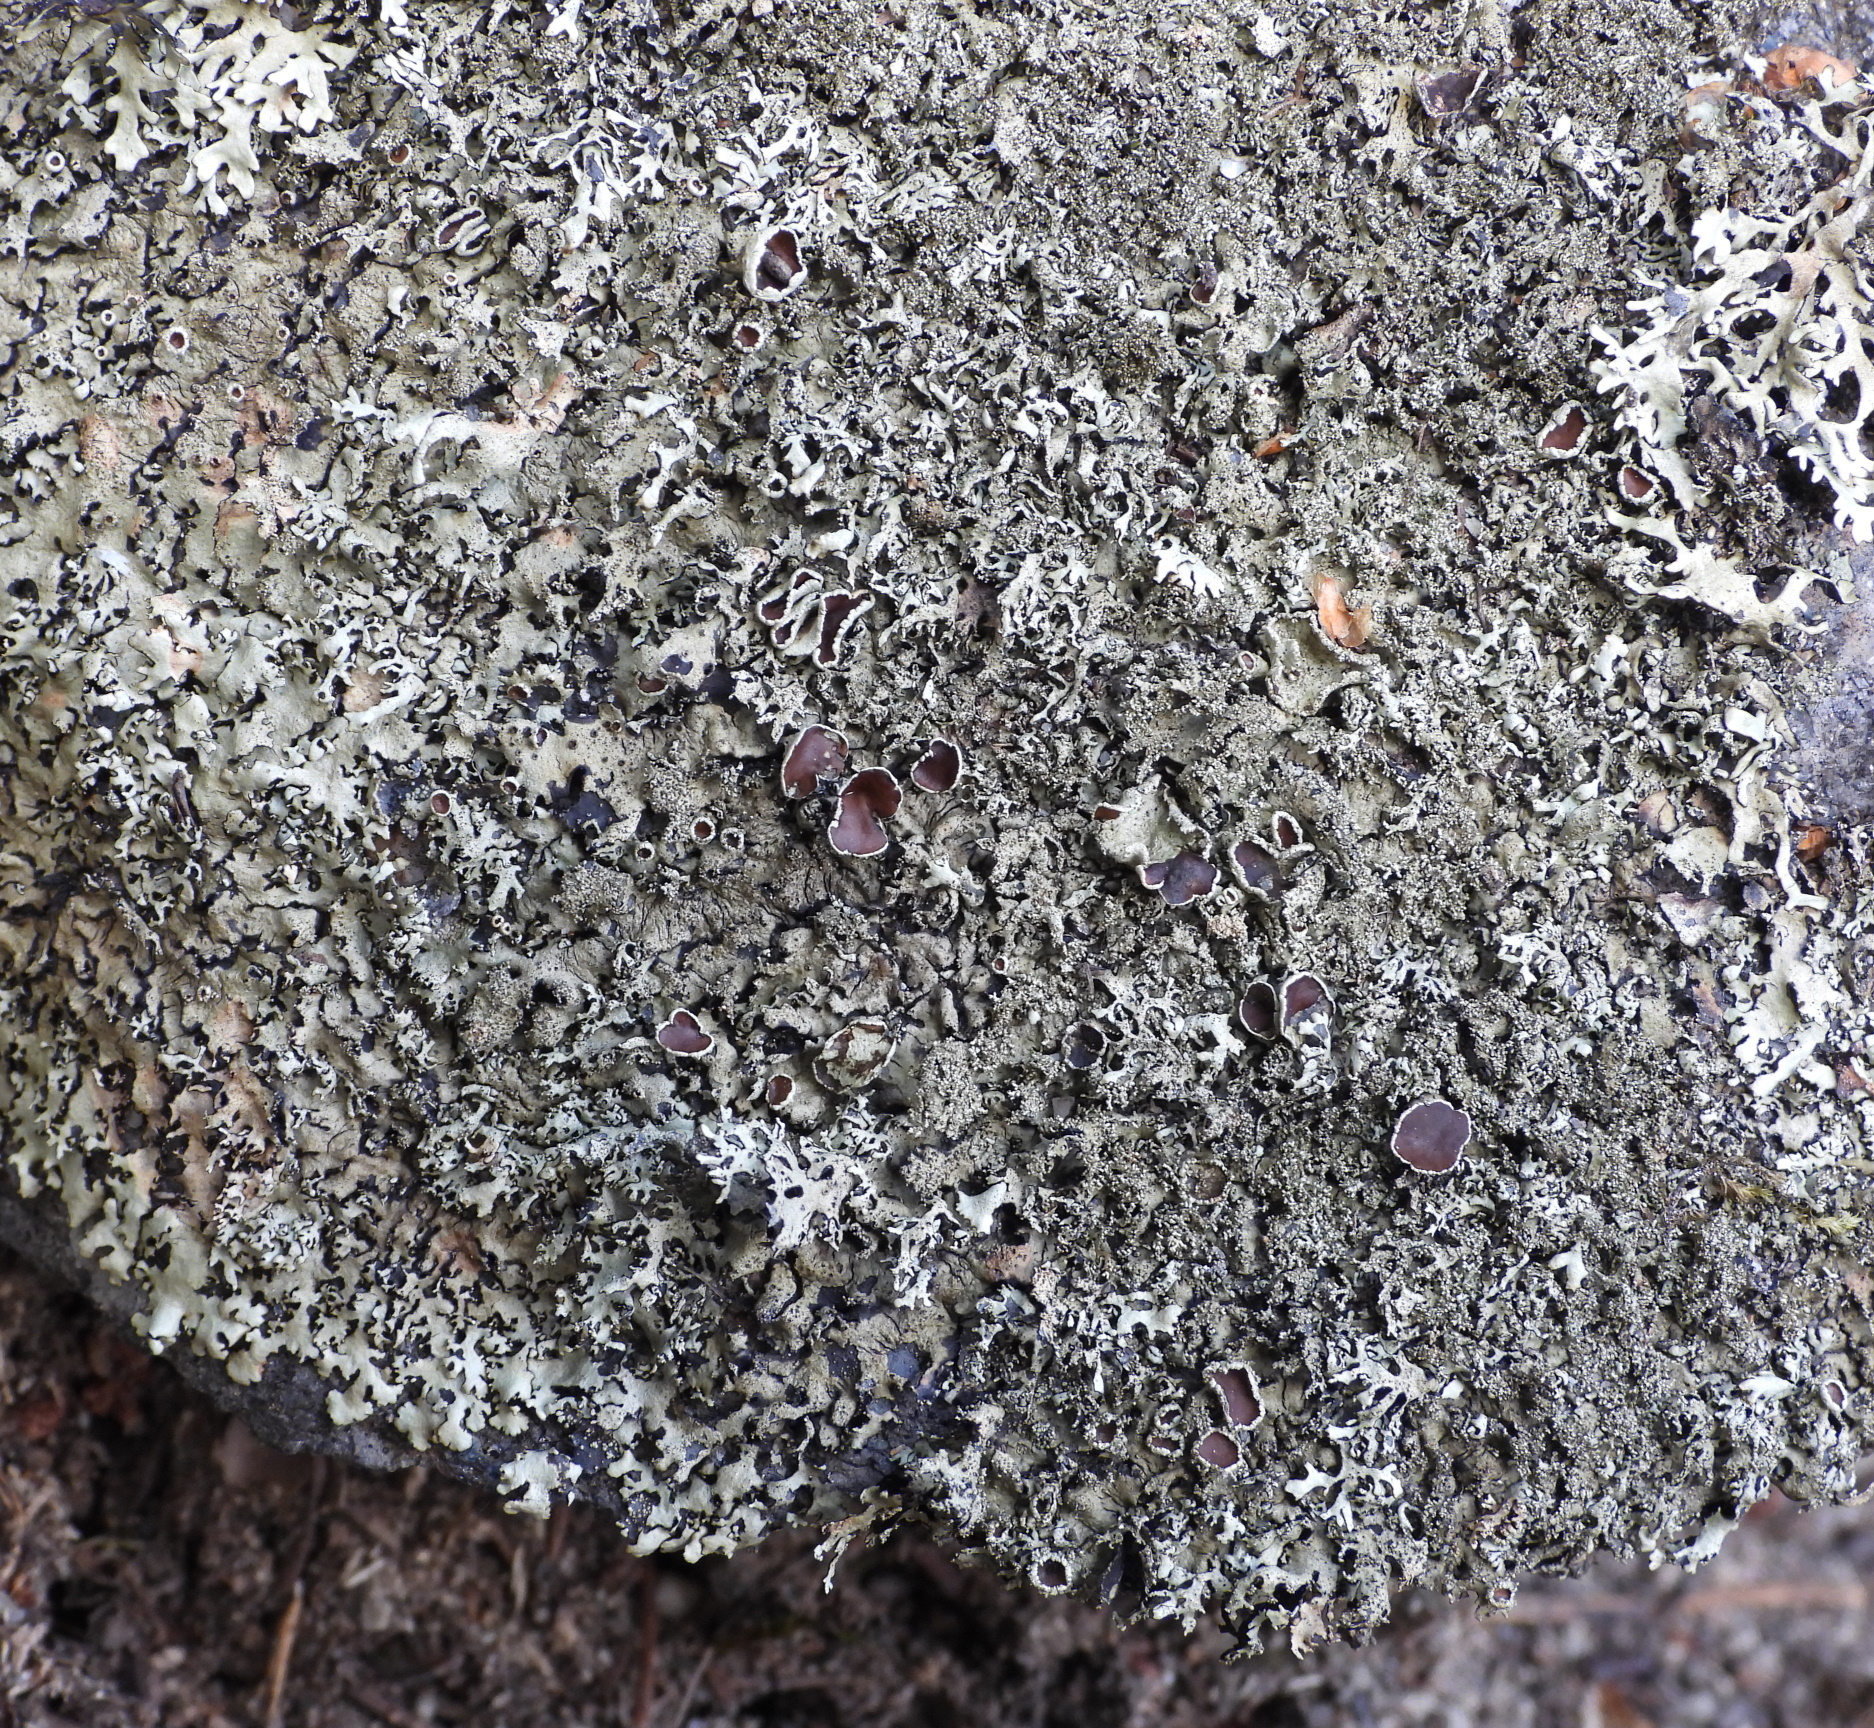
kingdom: Fungi
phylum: Ascomycota
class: Lecanoromycetes
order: Lecanorales
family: Parmeliaceae
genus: Xanthoparmelia
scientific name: Xanthoparmelia conspersa
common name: Peppered rock shield
